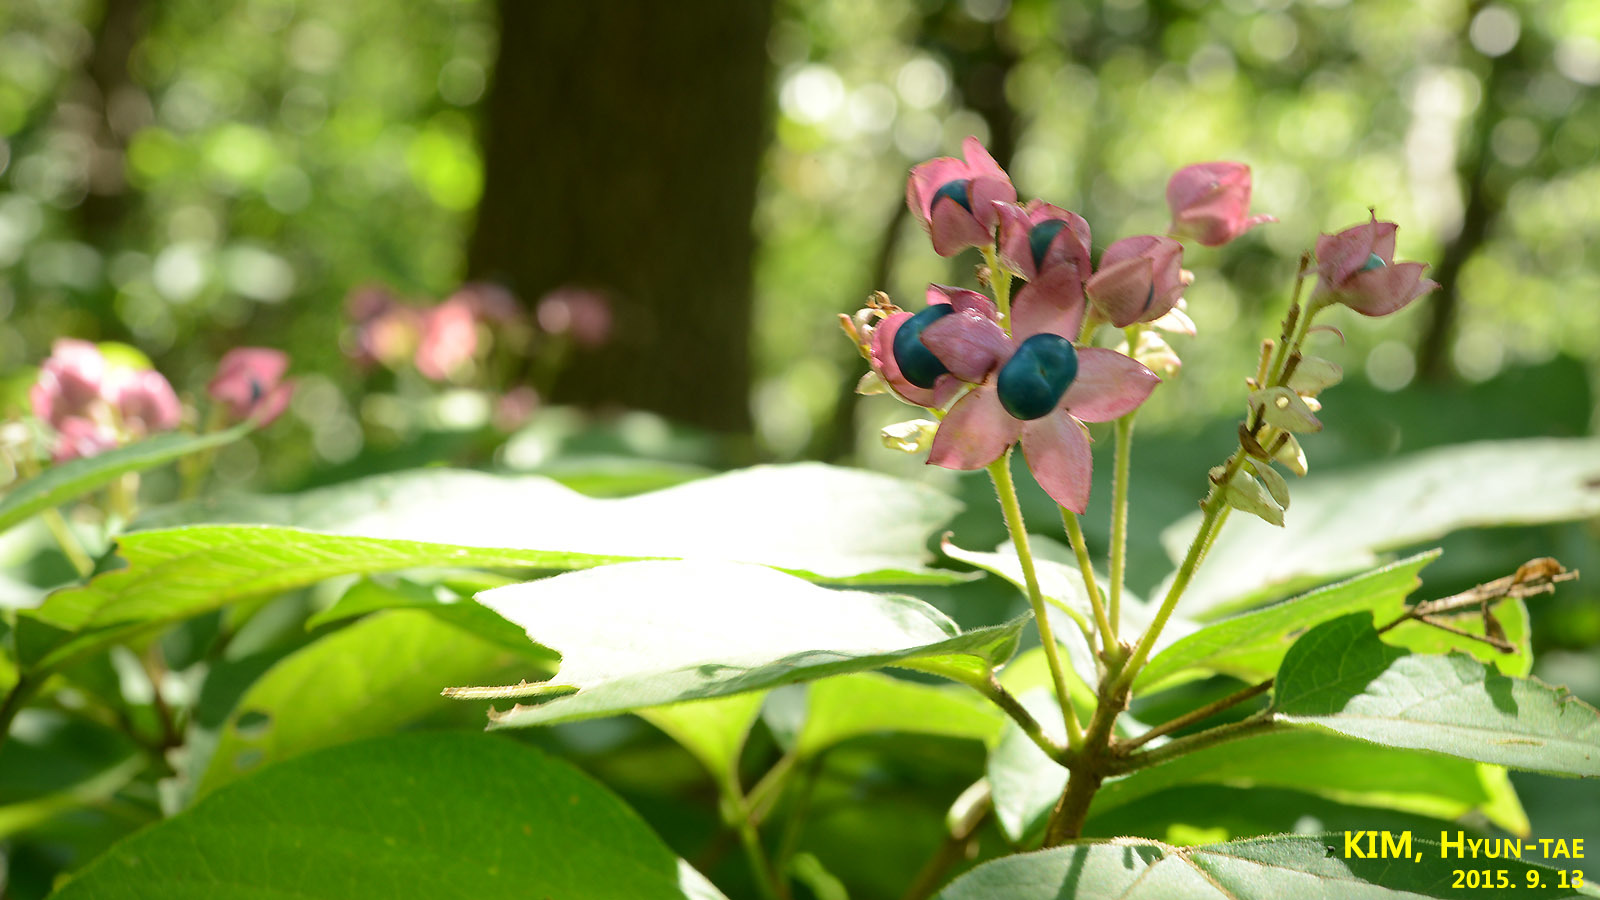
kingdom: Plantae
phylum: Tracheophyta
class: Magnoliopsida
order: Lamiales
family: Lamiaceae
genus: Clerodendrum
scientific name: Clerodendrum trichotomum
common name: Harlequin glorybower
